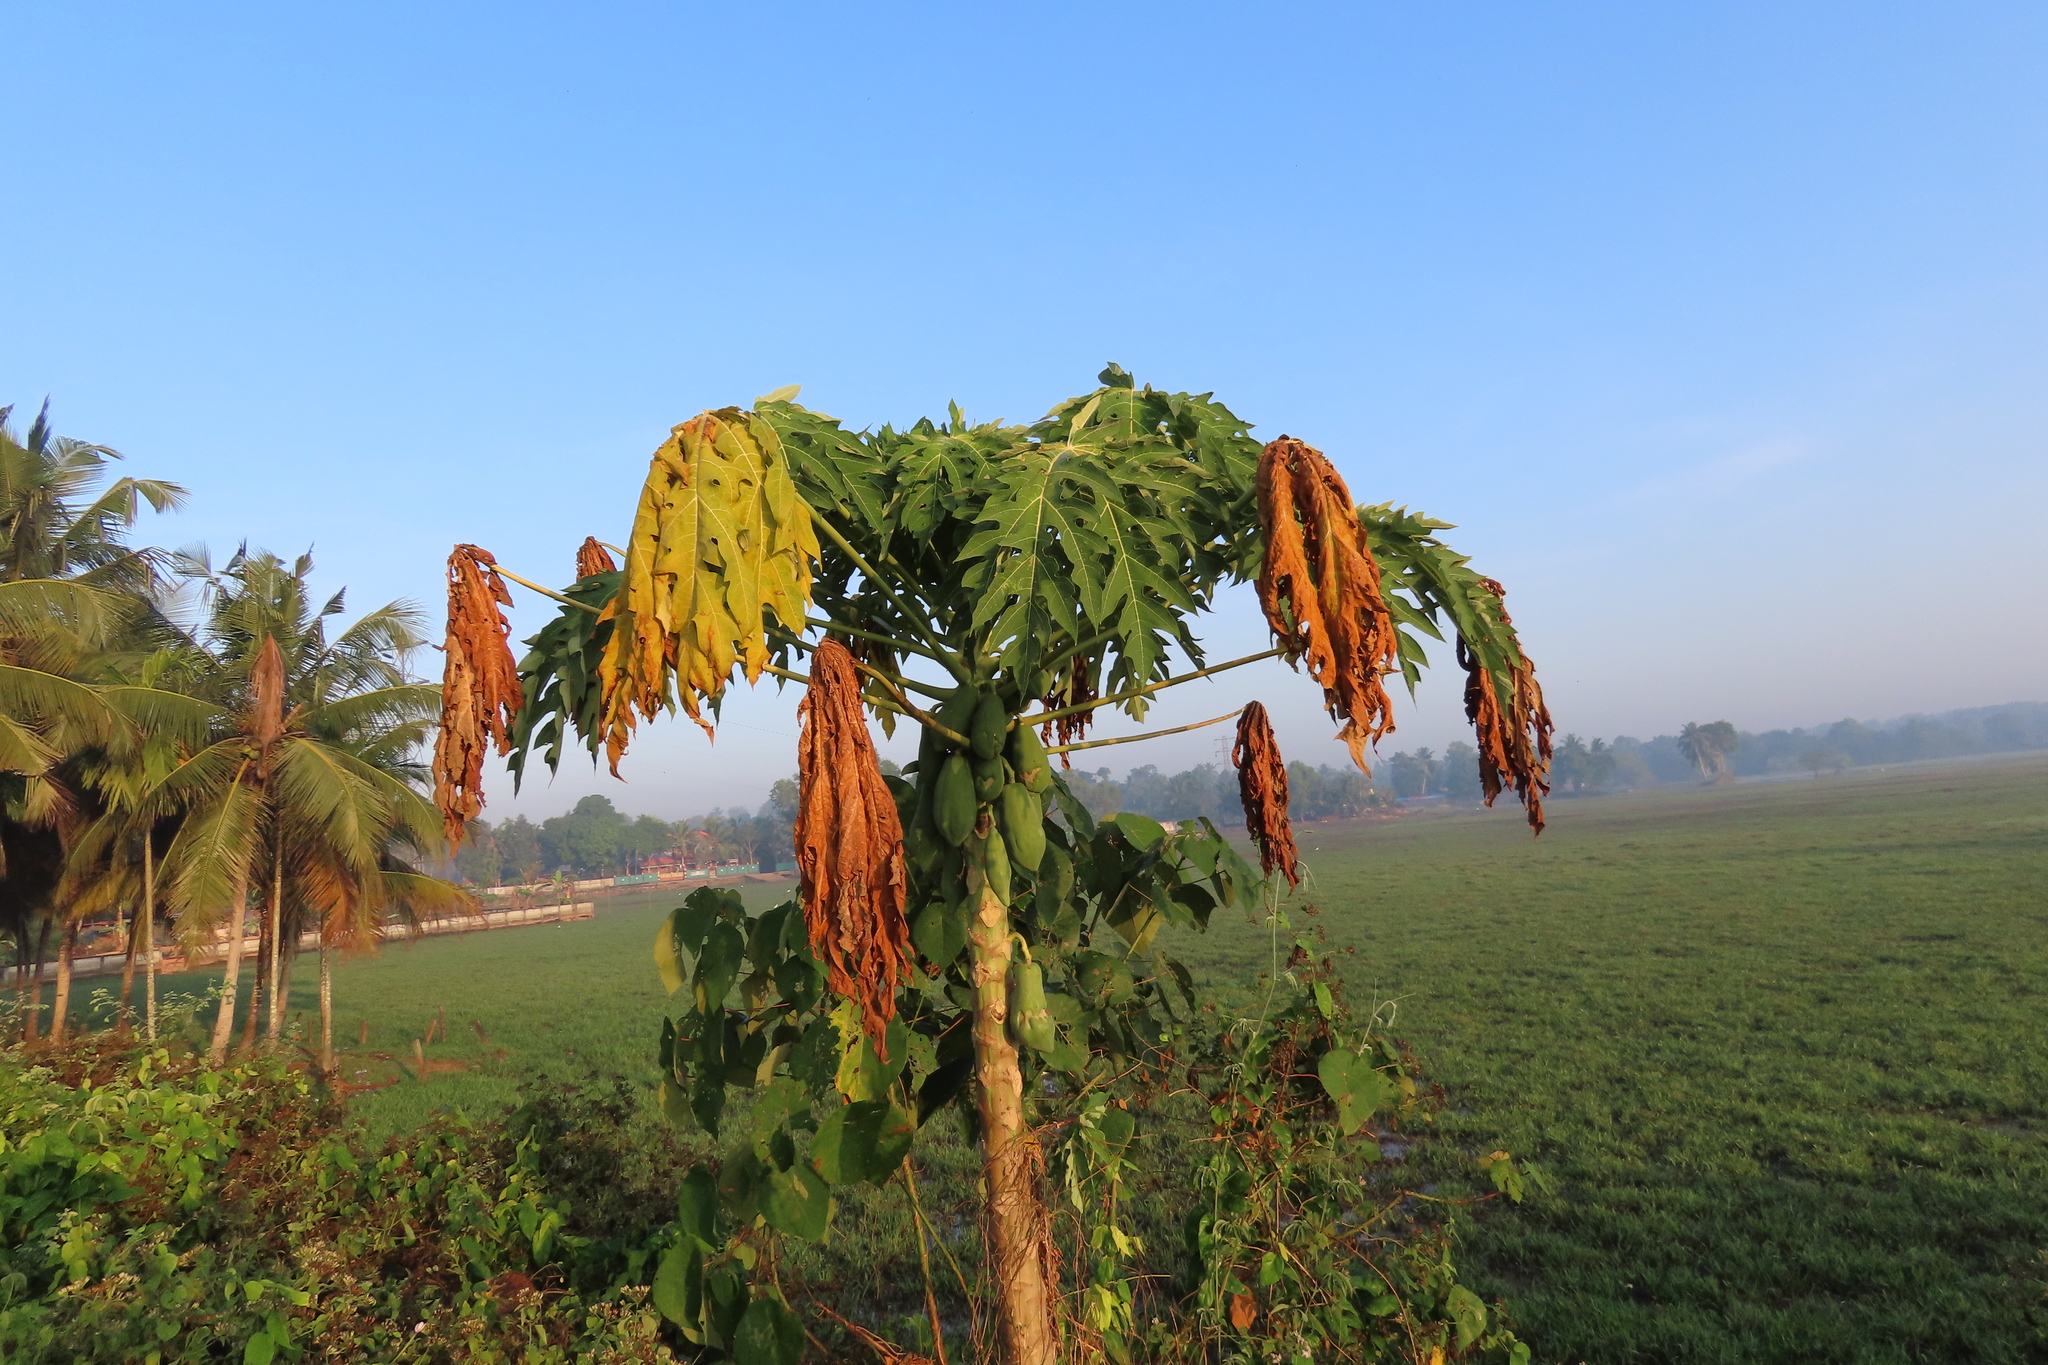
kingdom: Plantae
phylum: Tracheophyta
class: Magnoliopsida
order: Brassicales
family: Caricaceae
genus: Carica
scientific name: Carica papaya
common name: Papaya
